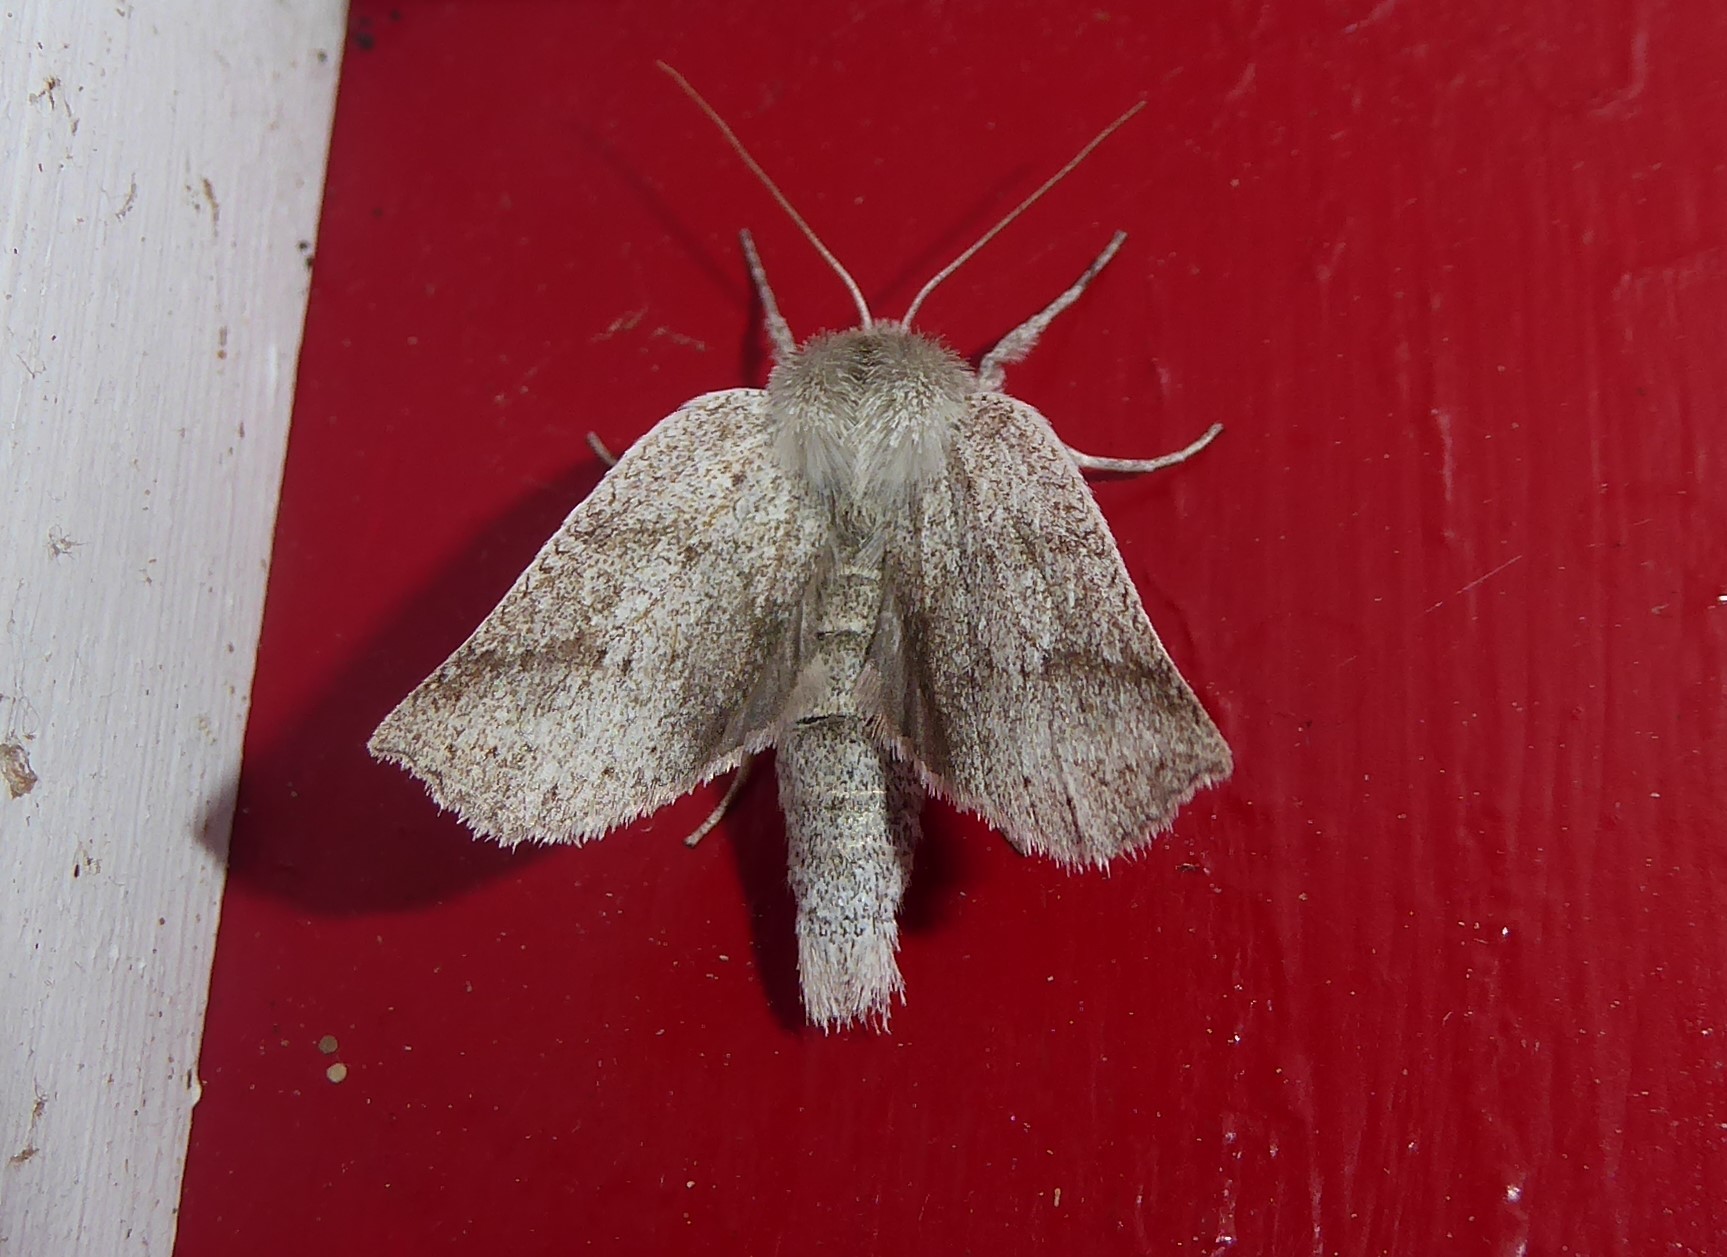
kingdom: Animalia
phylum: Arthropoda
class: Insecta
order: Lepidoptera
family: Geometridae
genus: Declana
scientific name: Declana leptomera
